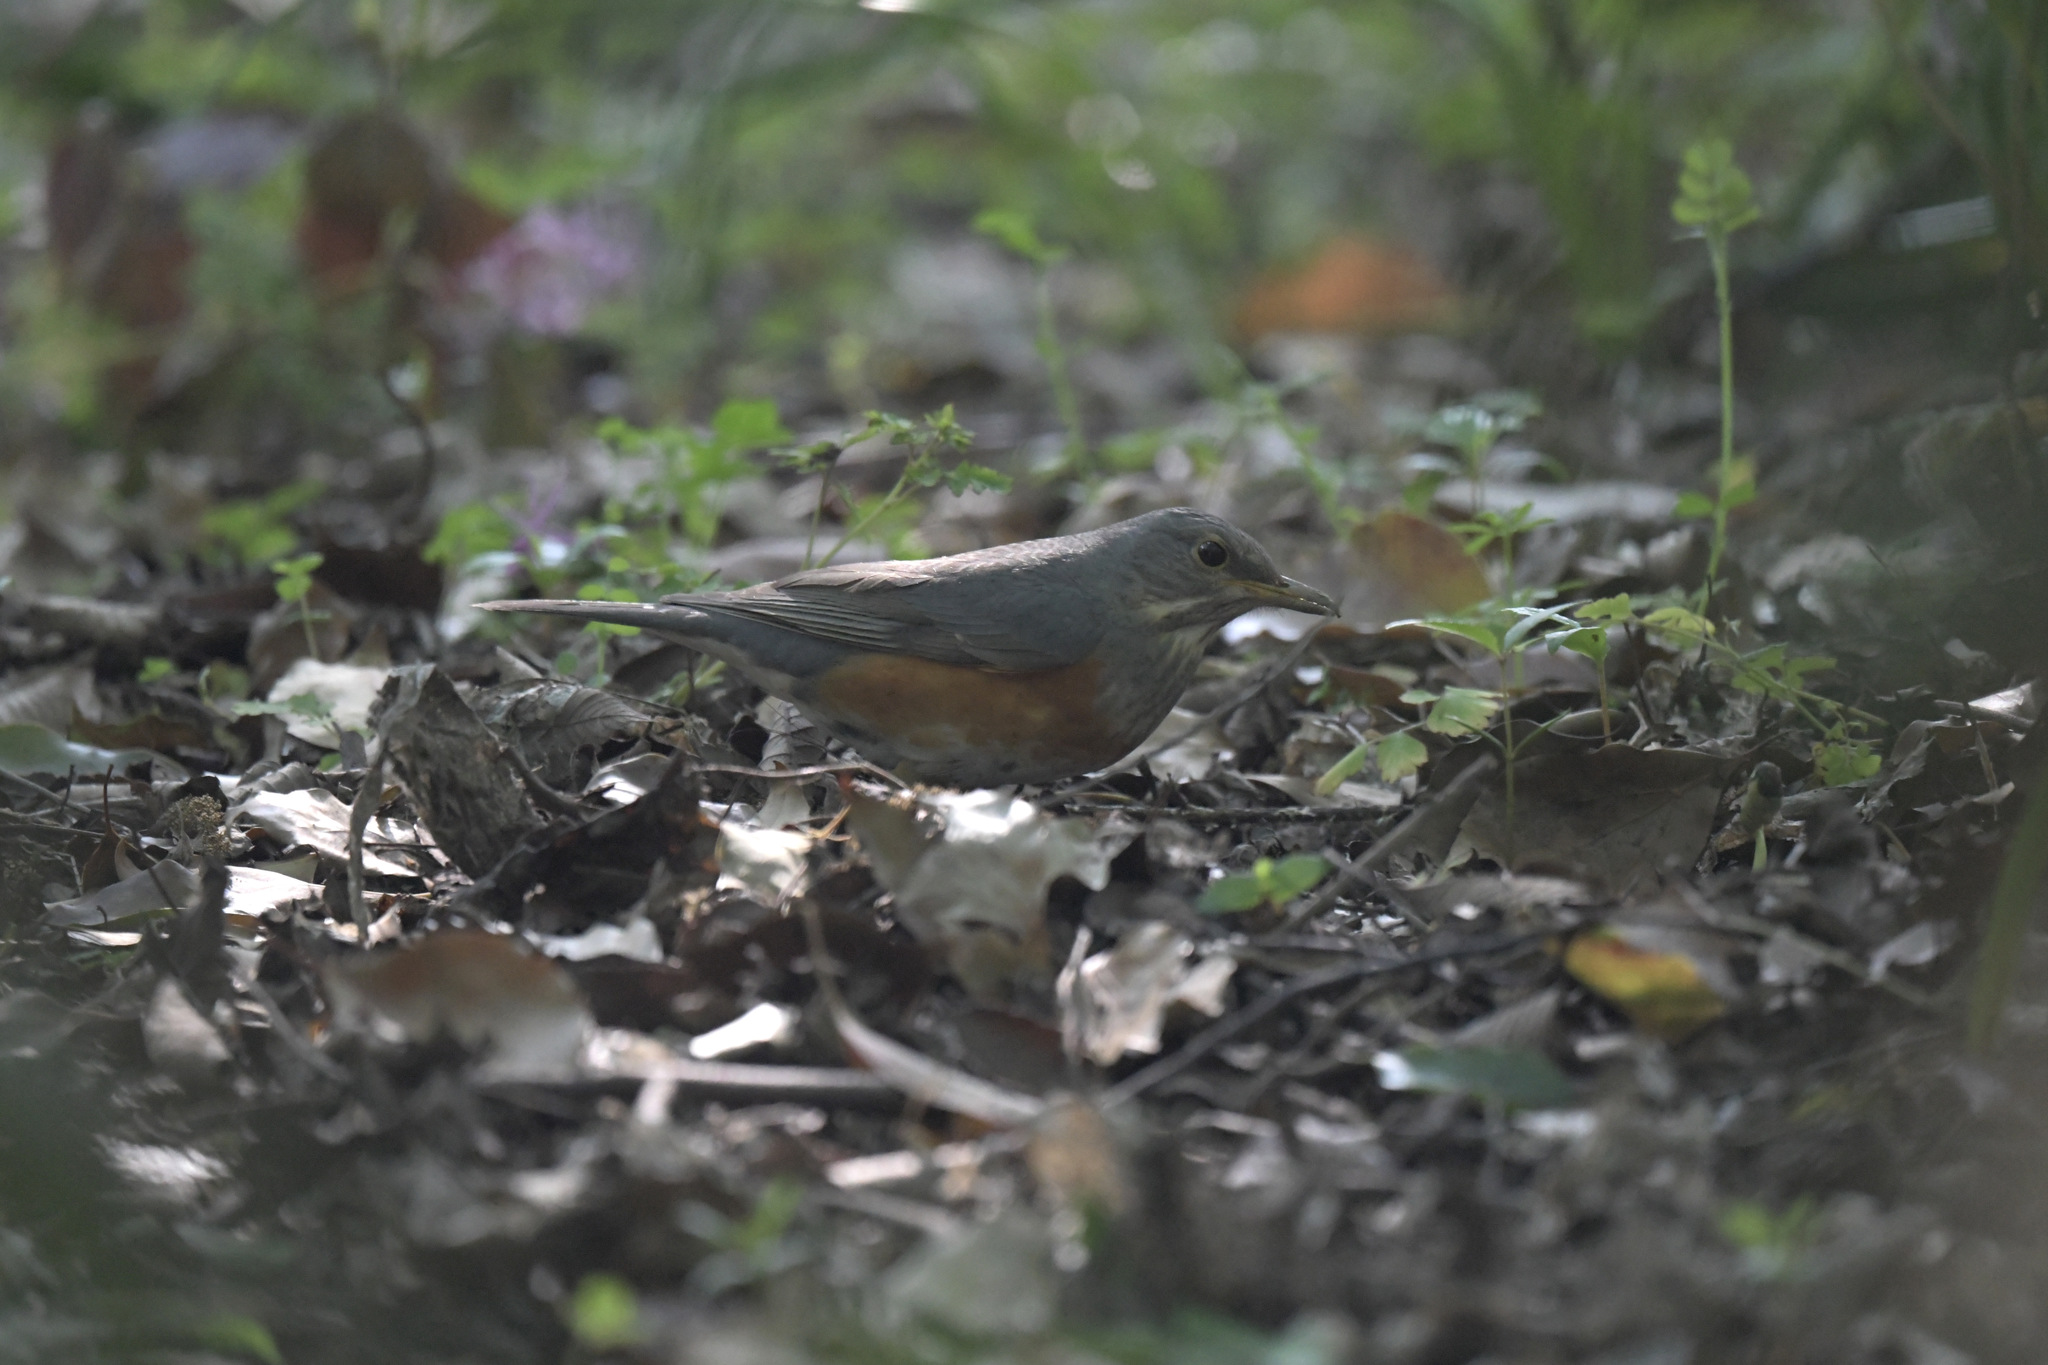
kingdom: Animalia
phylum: Chordata
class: Aves
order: Passeriformes
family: Turdidae
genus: Turdus
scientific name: Turdus hortulorum
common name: Grey-backed thrush
